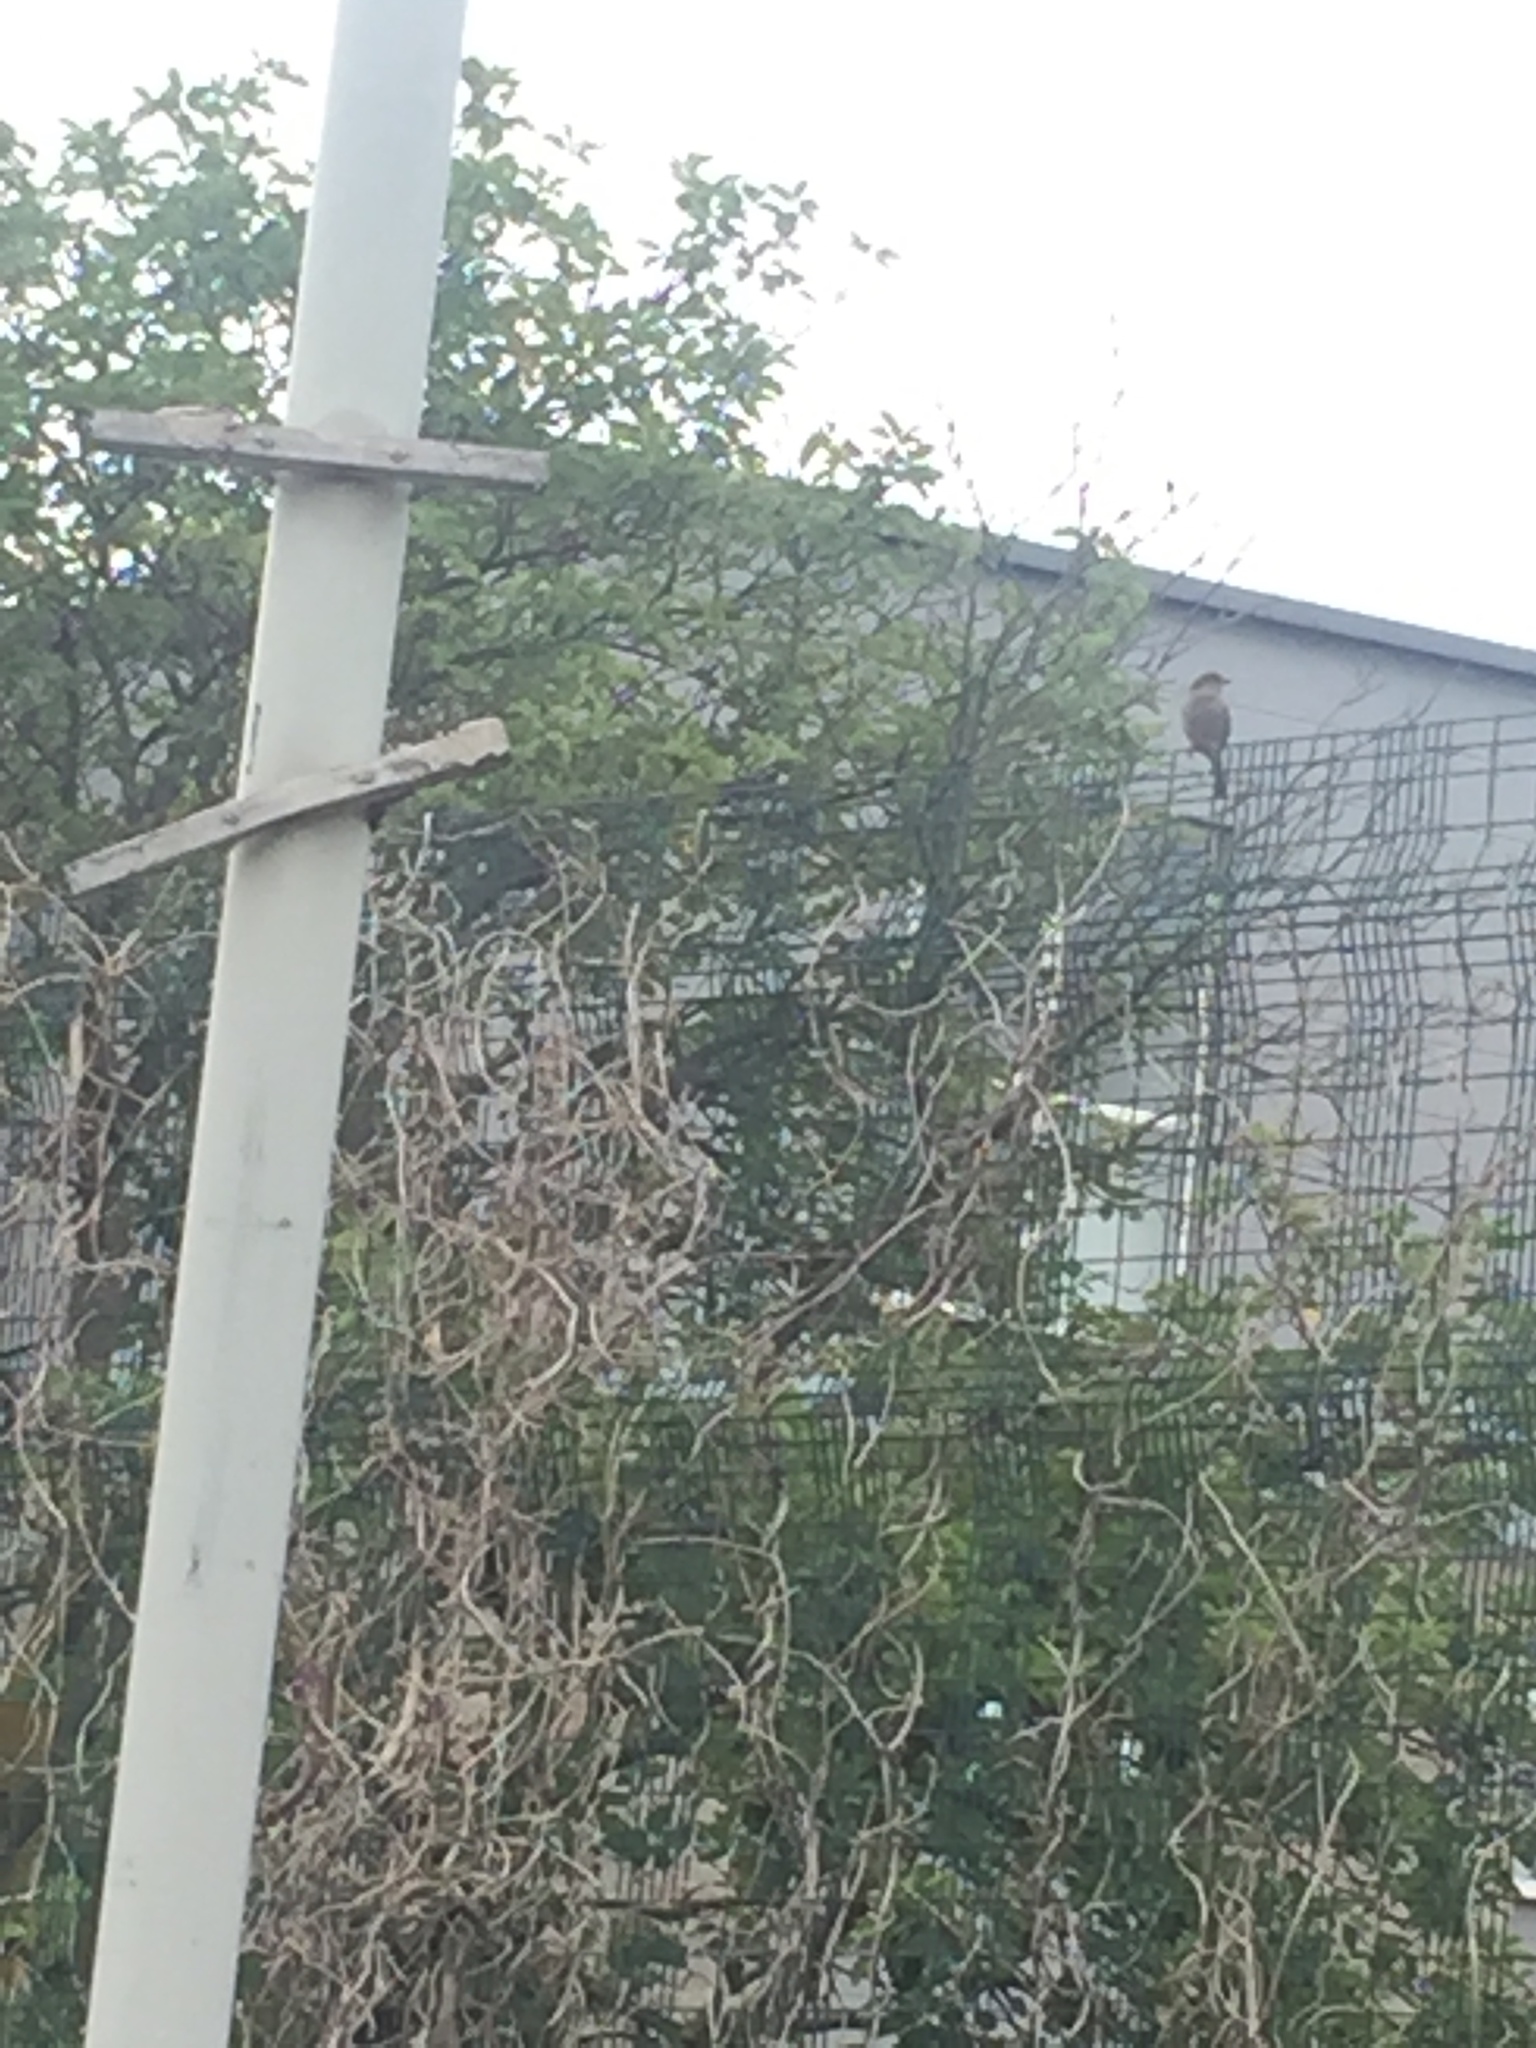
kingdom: Animalia
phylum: Chordata
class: Aves
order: Passeriformes
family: Passeridae
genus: Passer
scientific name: Passer domesticus
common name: House sparrow
